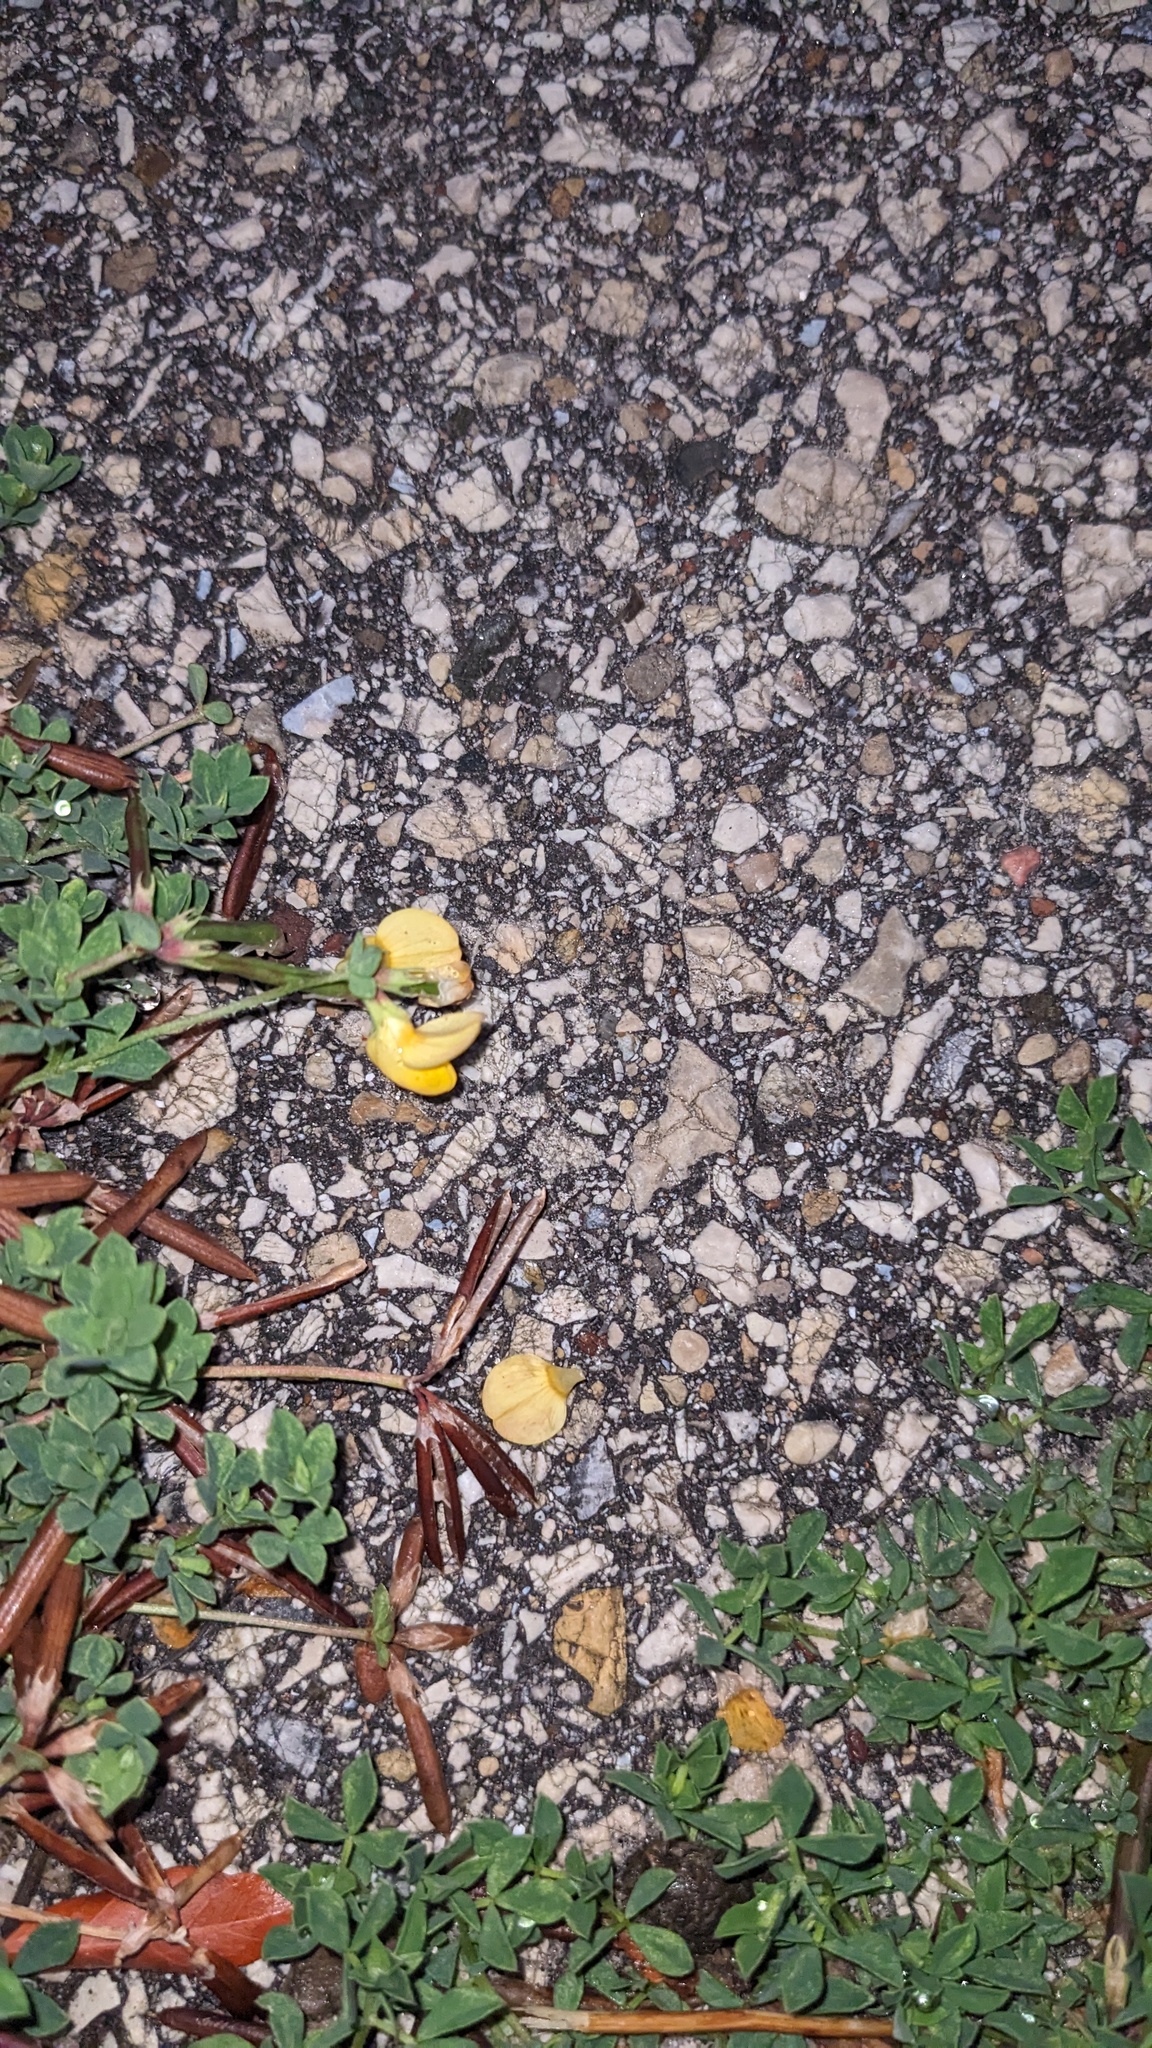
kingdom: Plantae
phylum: Tracheophyta
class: Magnoliopsida
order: Fabales
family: Fabaceae
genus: Lotus
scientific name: Lotus corniculatus
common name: Common bird's-foot-trefoil
